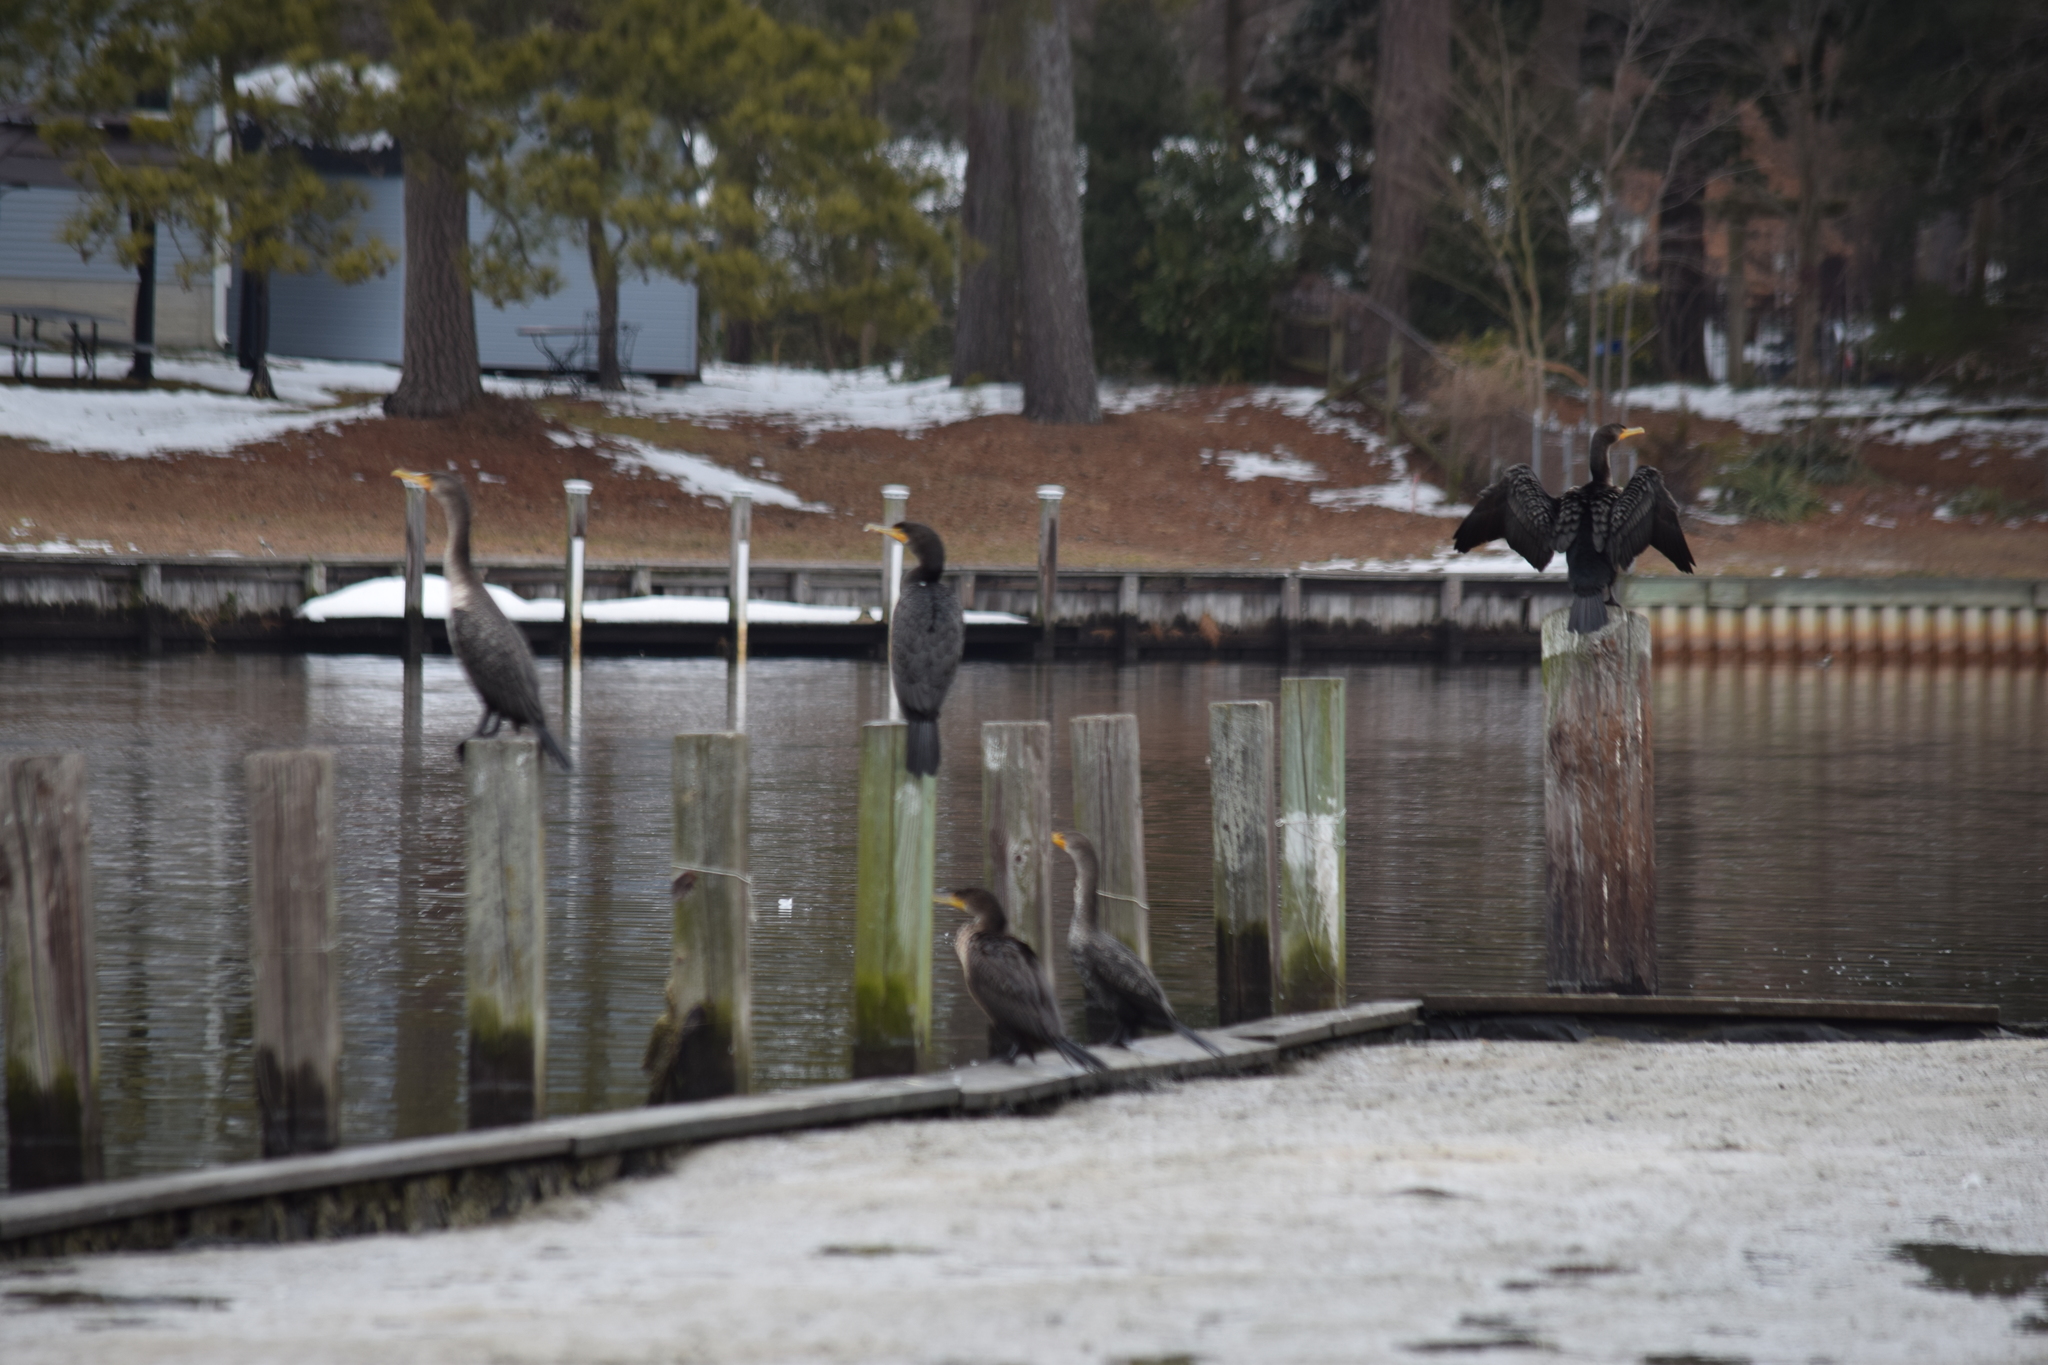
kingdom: Animalia
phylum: Chordata
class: Aves
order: Suliformes
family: Phalacrocoracidae
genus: Phalacrocorax
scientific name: Phalacrocorax auritus
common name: Double-crested cormorant
